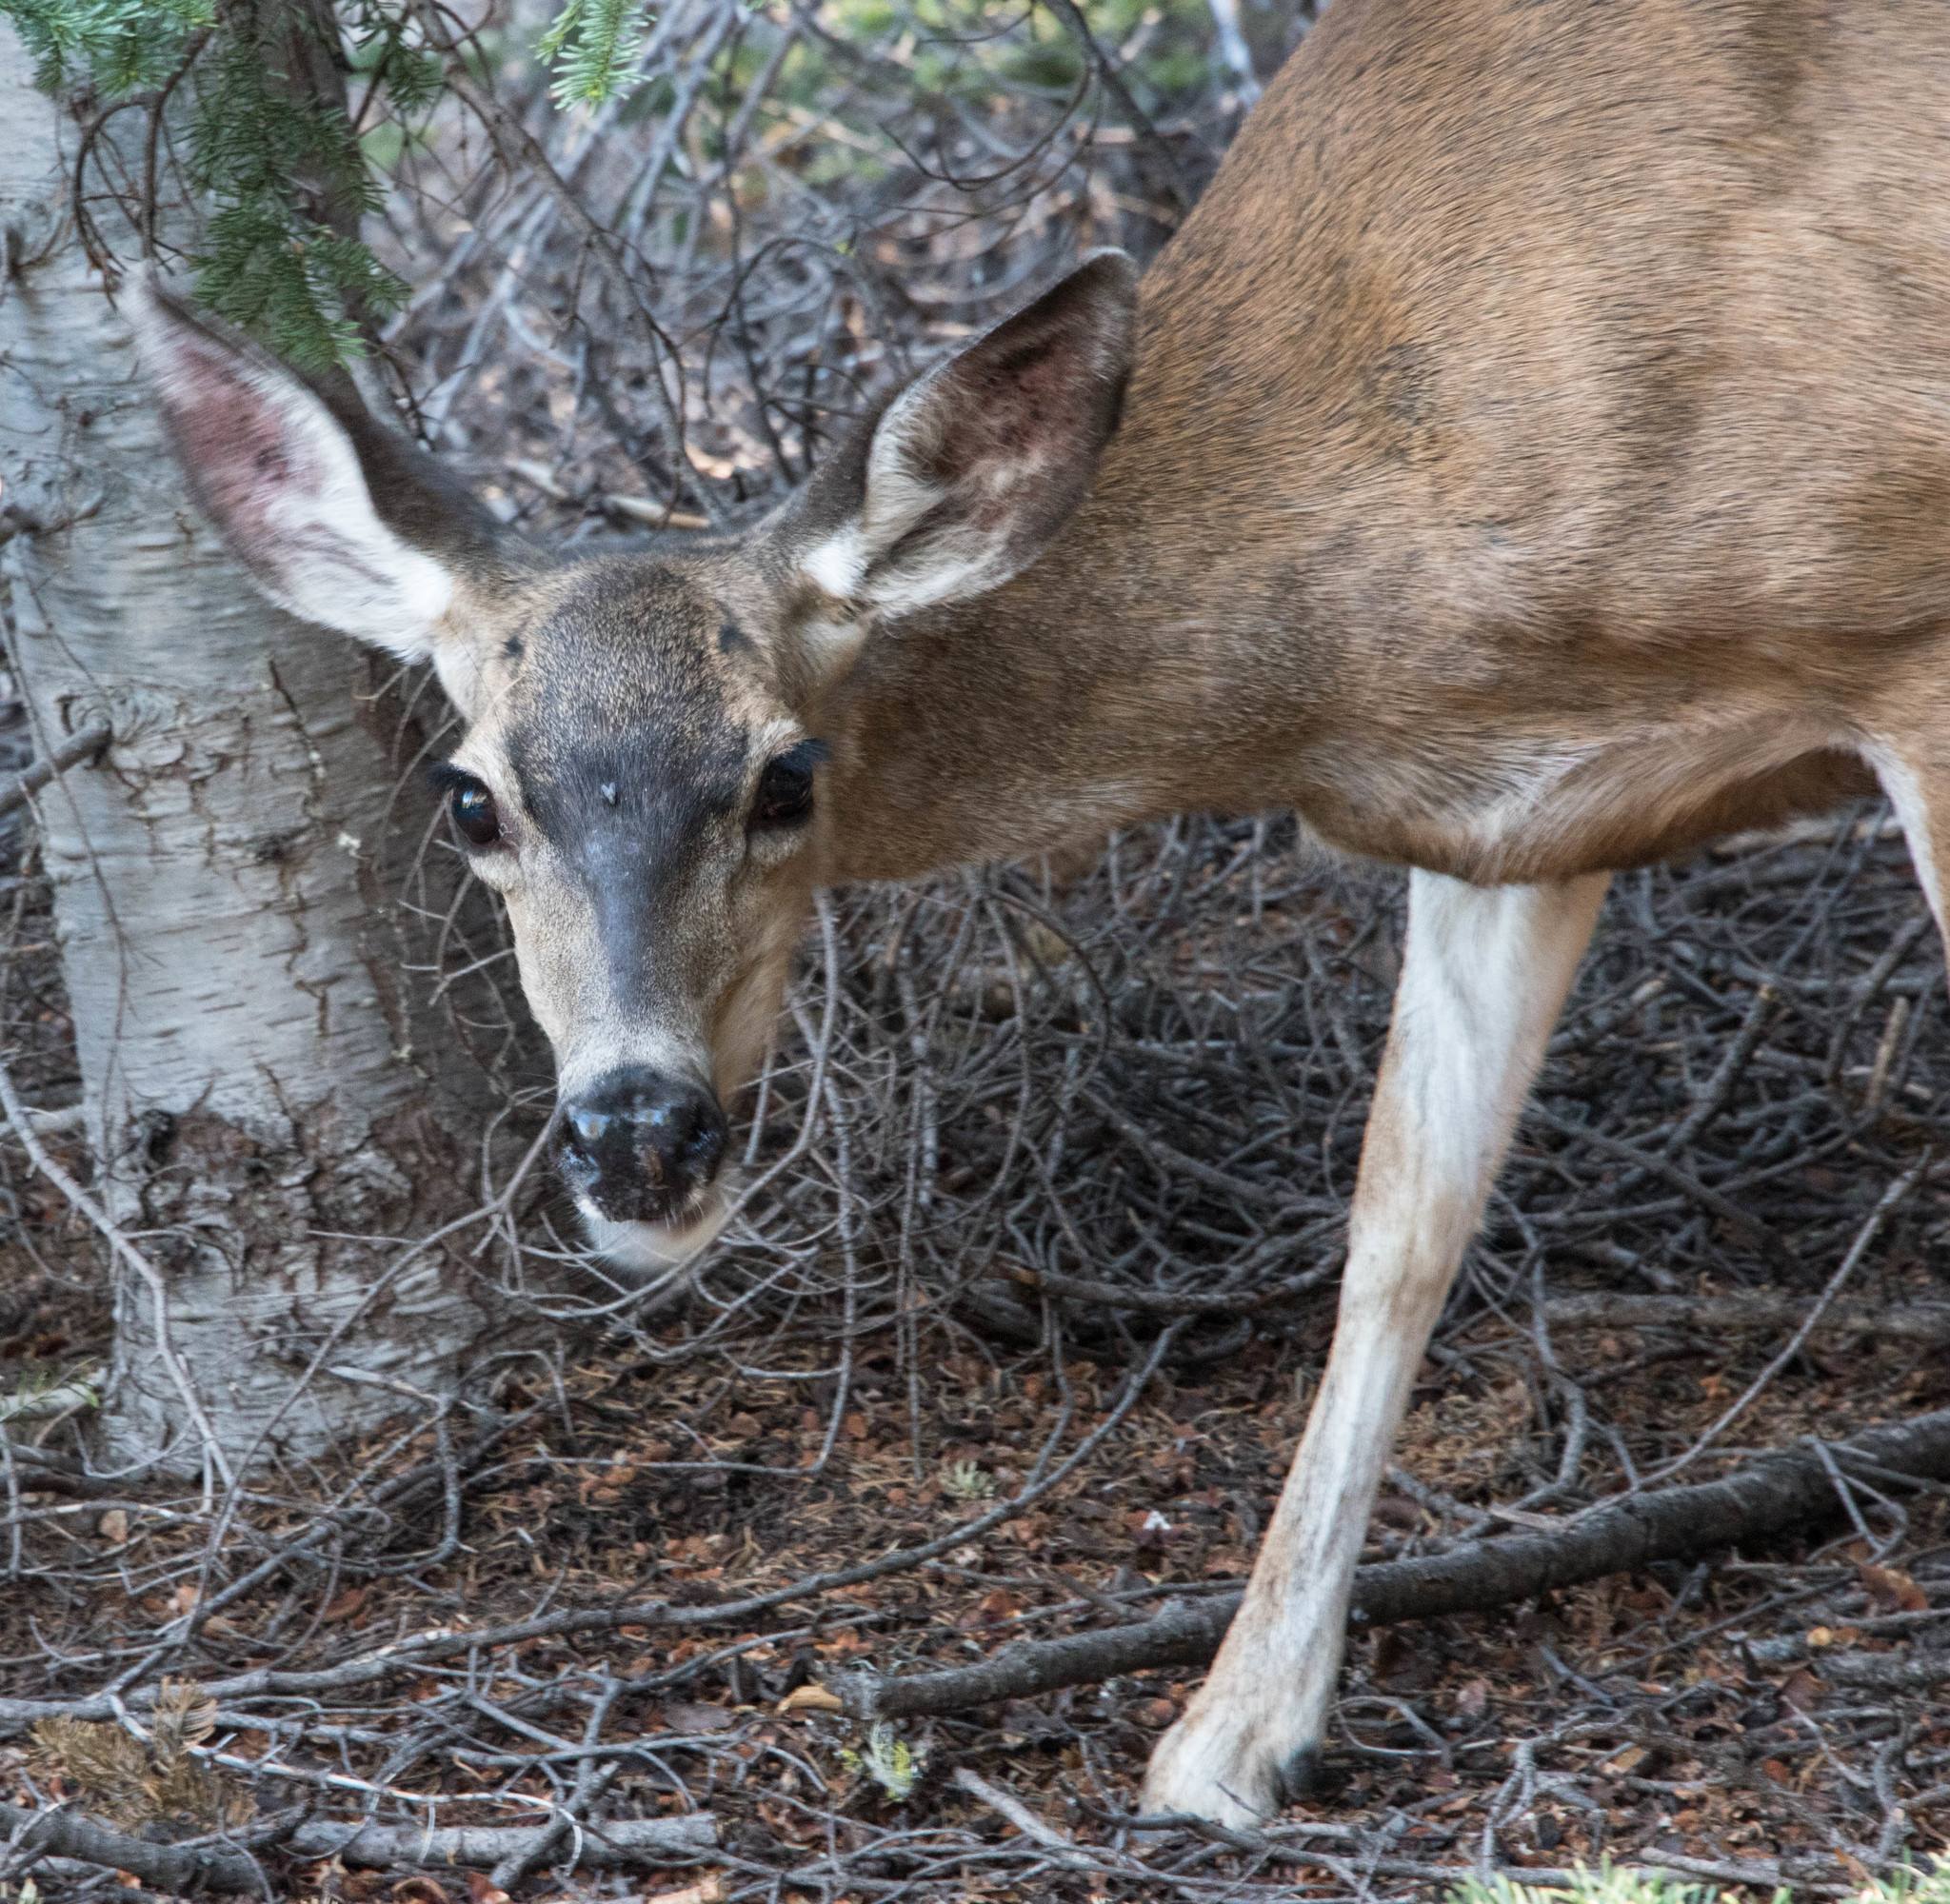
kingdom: Animalia
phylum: Chordata
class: Mammalia
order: Artiodactyla
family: Cervidae
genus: Odocoileus
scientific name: Odocoileus hemionus
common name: Mule deer
